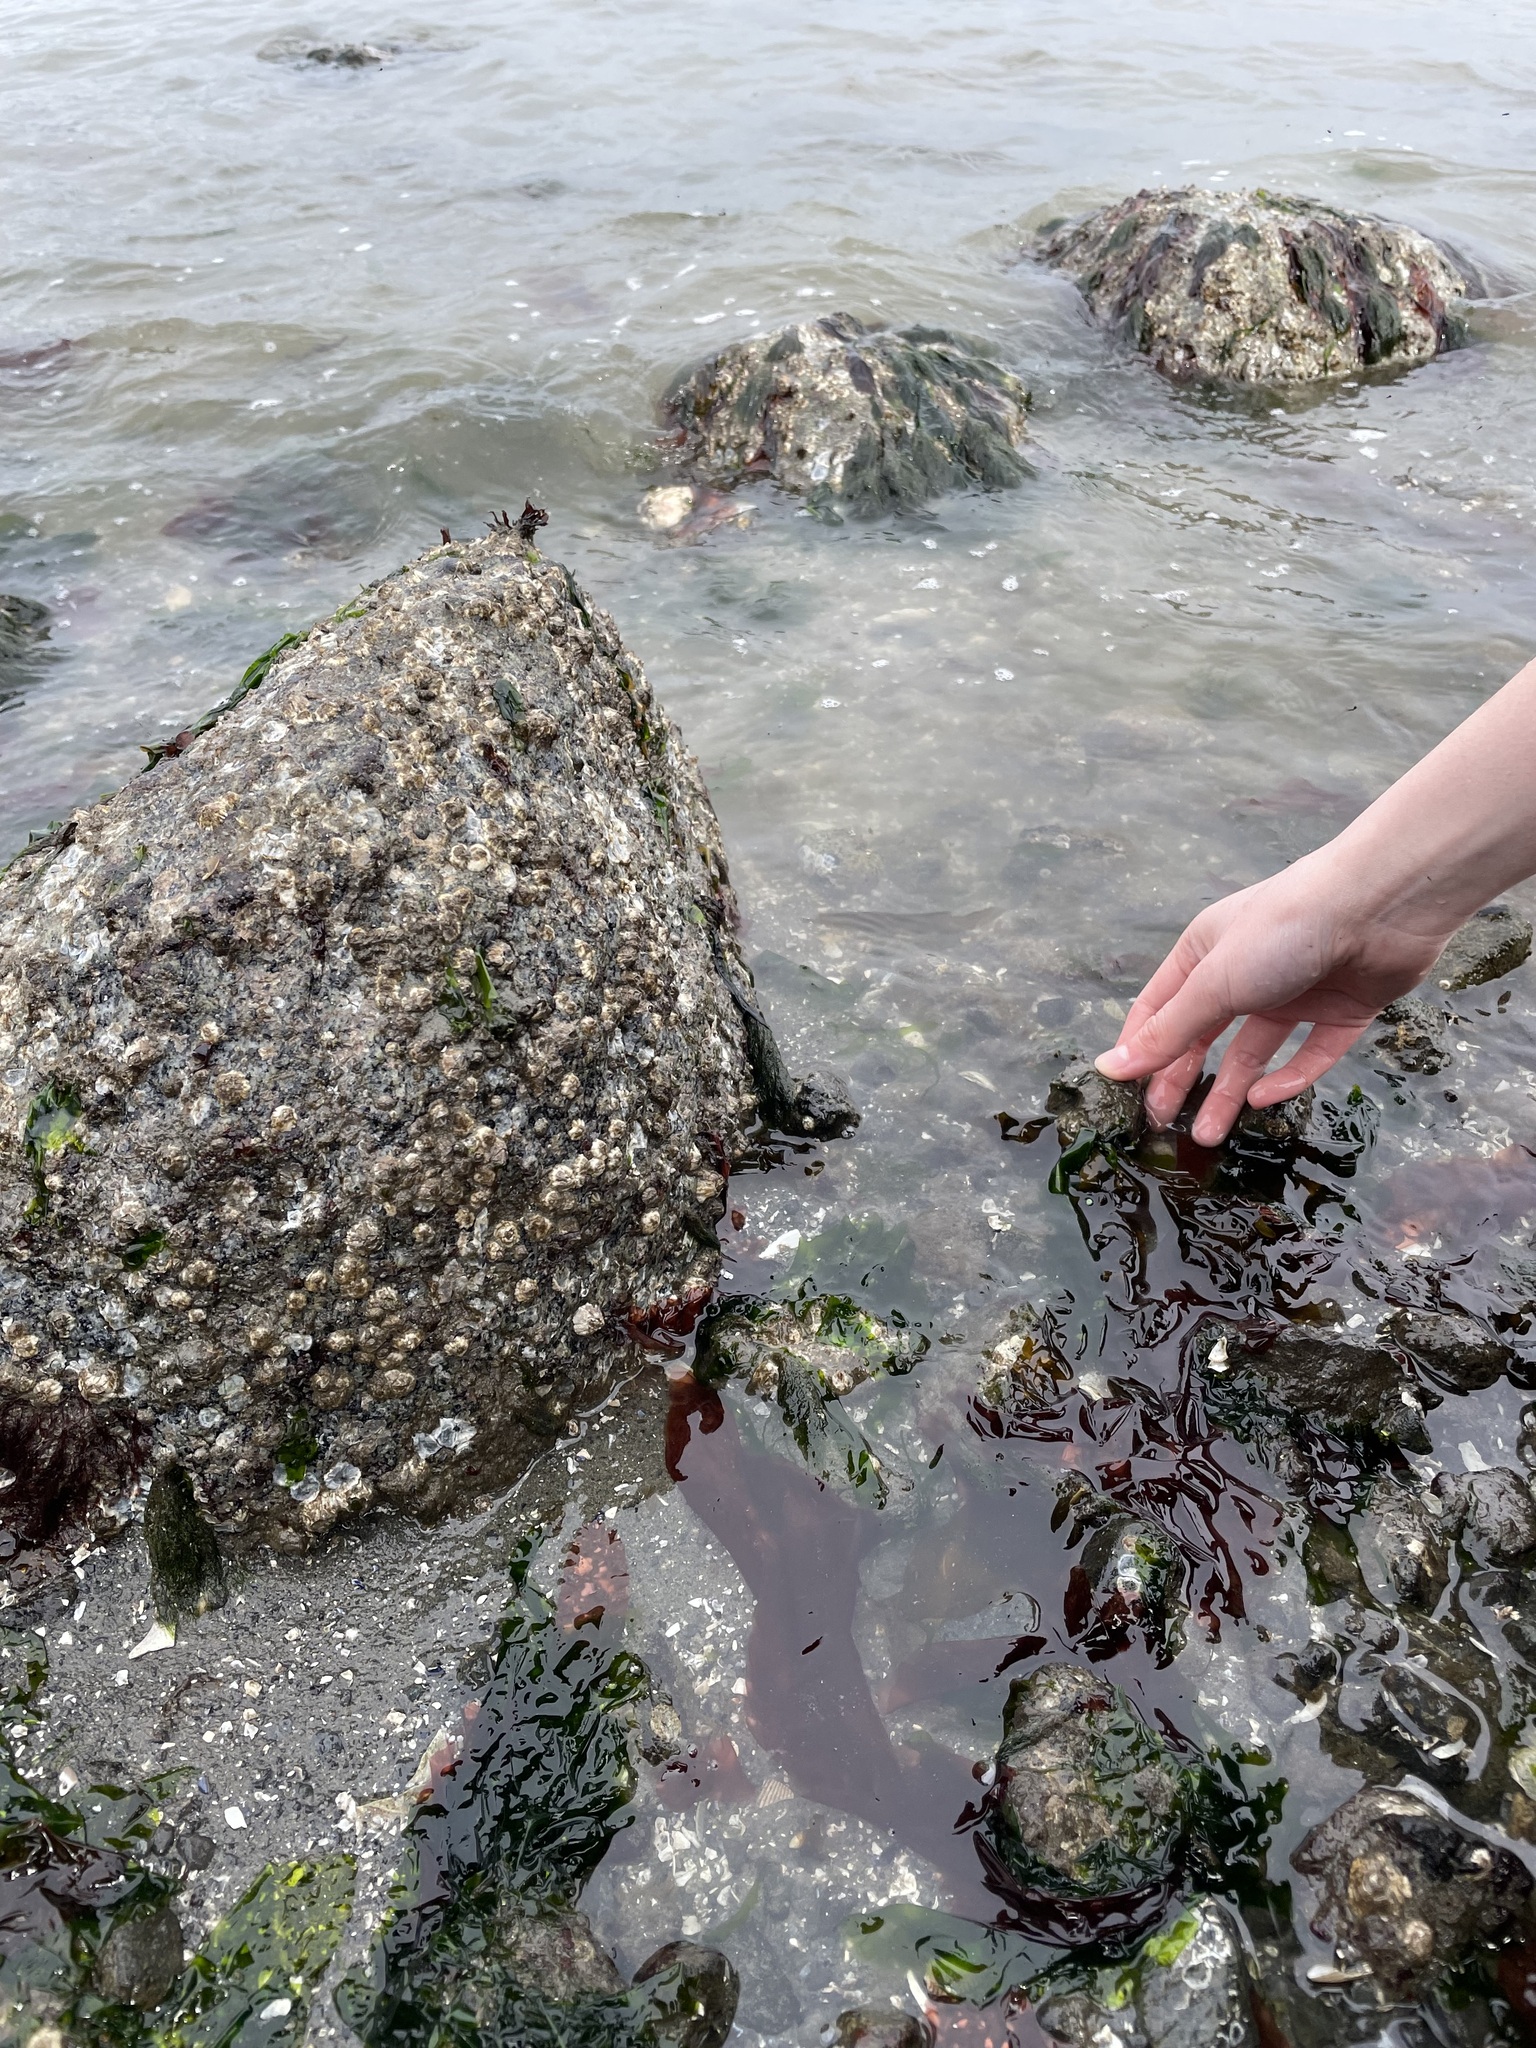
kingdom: Chromista
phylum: Ochrophyta
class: Phaeophyceae
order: Scytosiphonales
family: Scytosiphonaceae
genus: Petalonia
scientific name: Petalonia fascia
